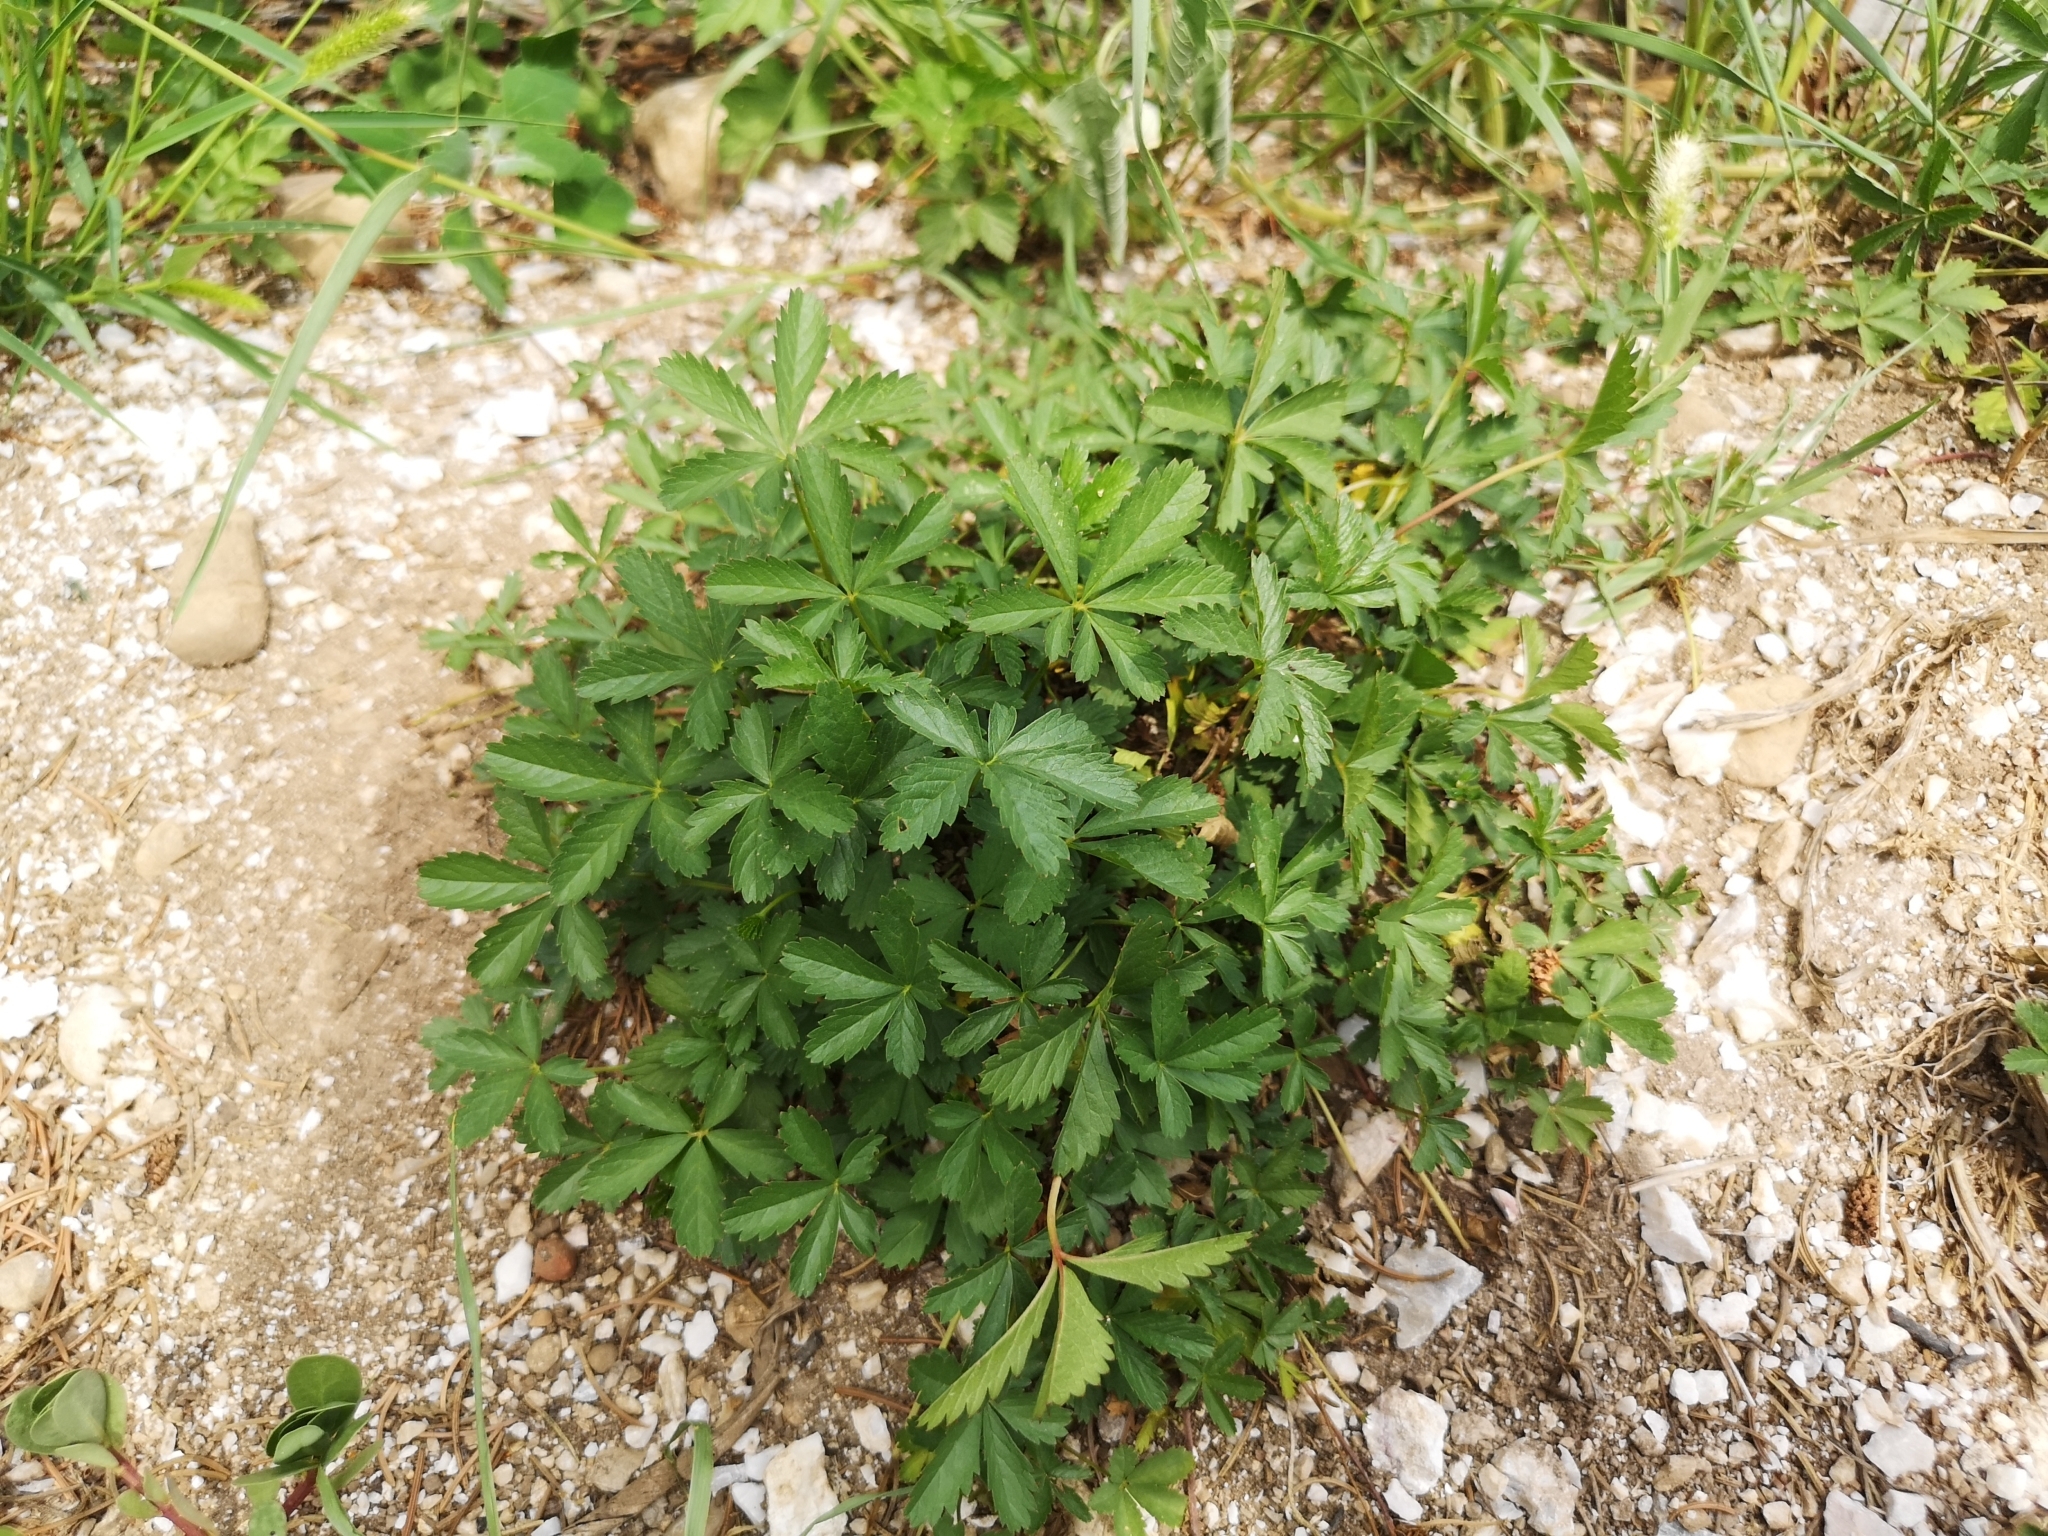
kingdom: Plantae
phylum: Tracheophyta
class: Magnoliopsida
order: Rosales
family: Rosaceae
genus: Potentilla
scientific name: Potentilla reptans
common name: Creeping cinquefoil
